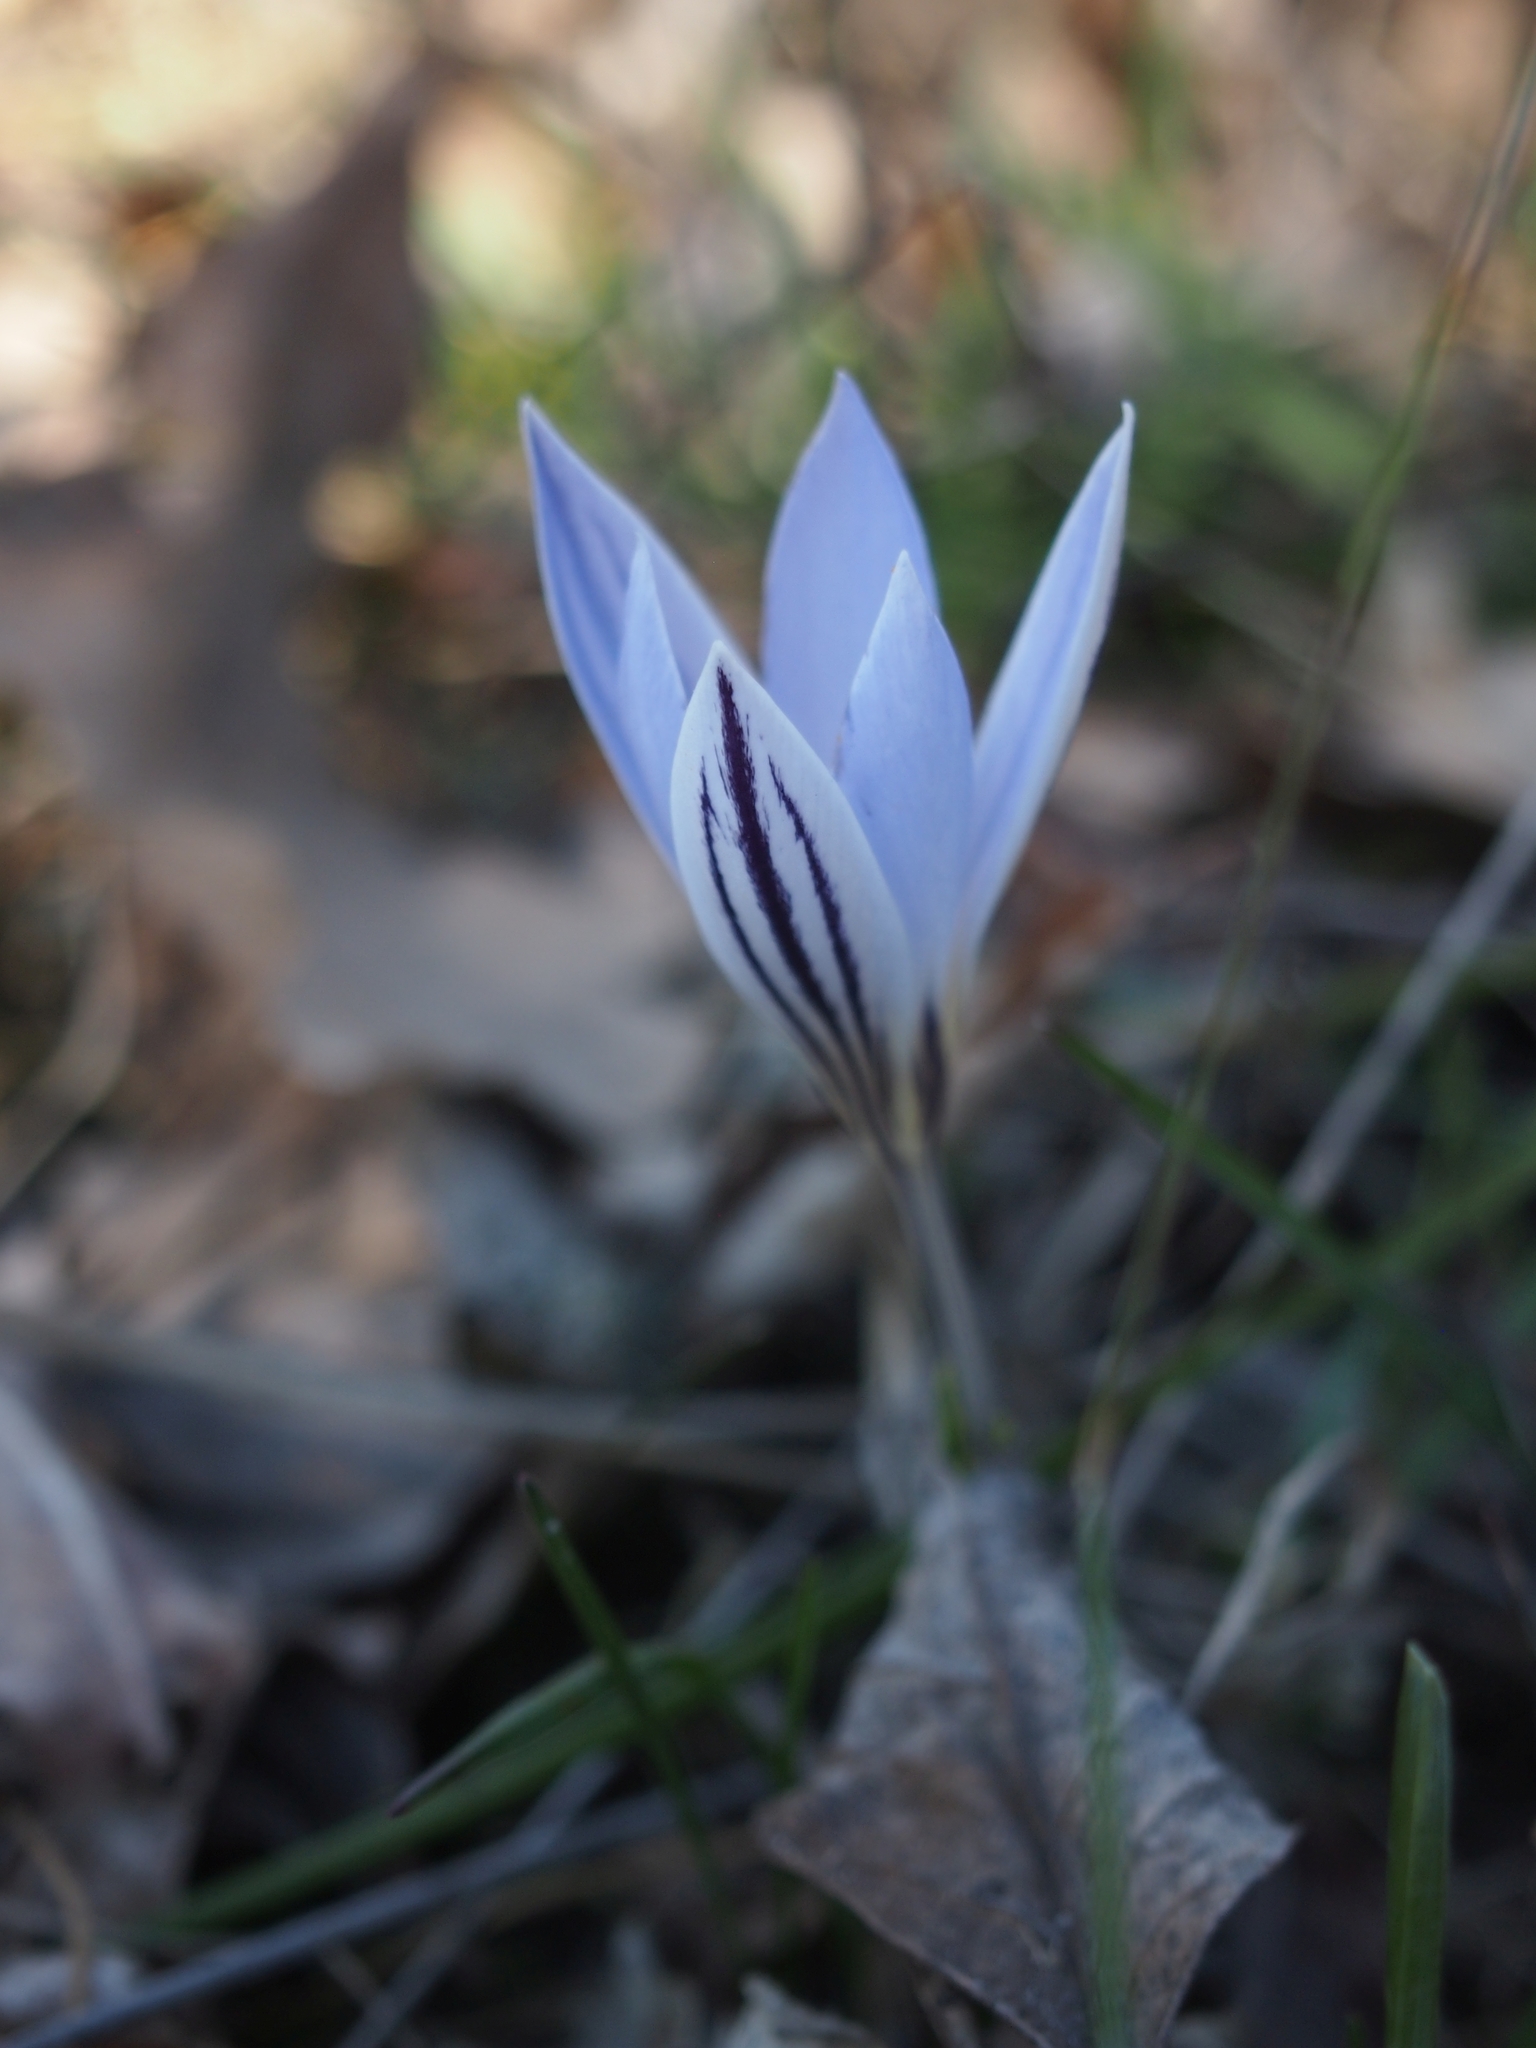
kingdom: Plantae
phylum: Tracheophyta
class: Liliopsida
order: Asparagales
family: Iridaceae
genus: Crocus
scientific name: Crocus reticulatus
